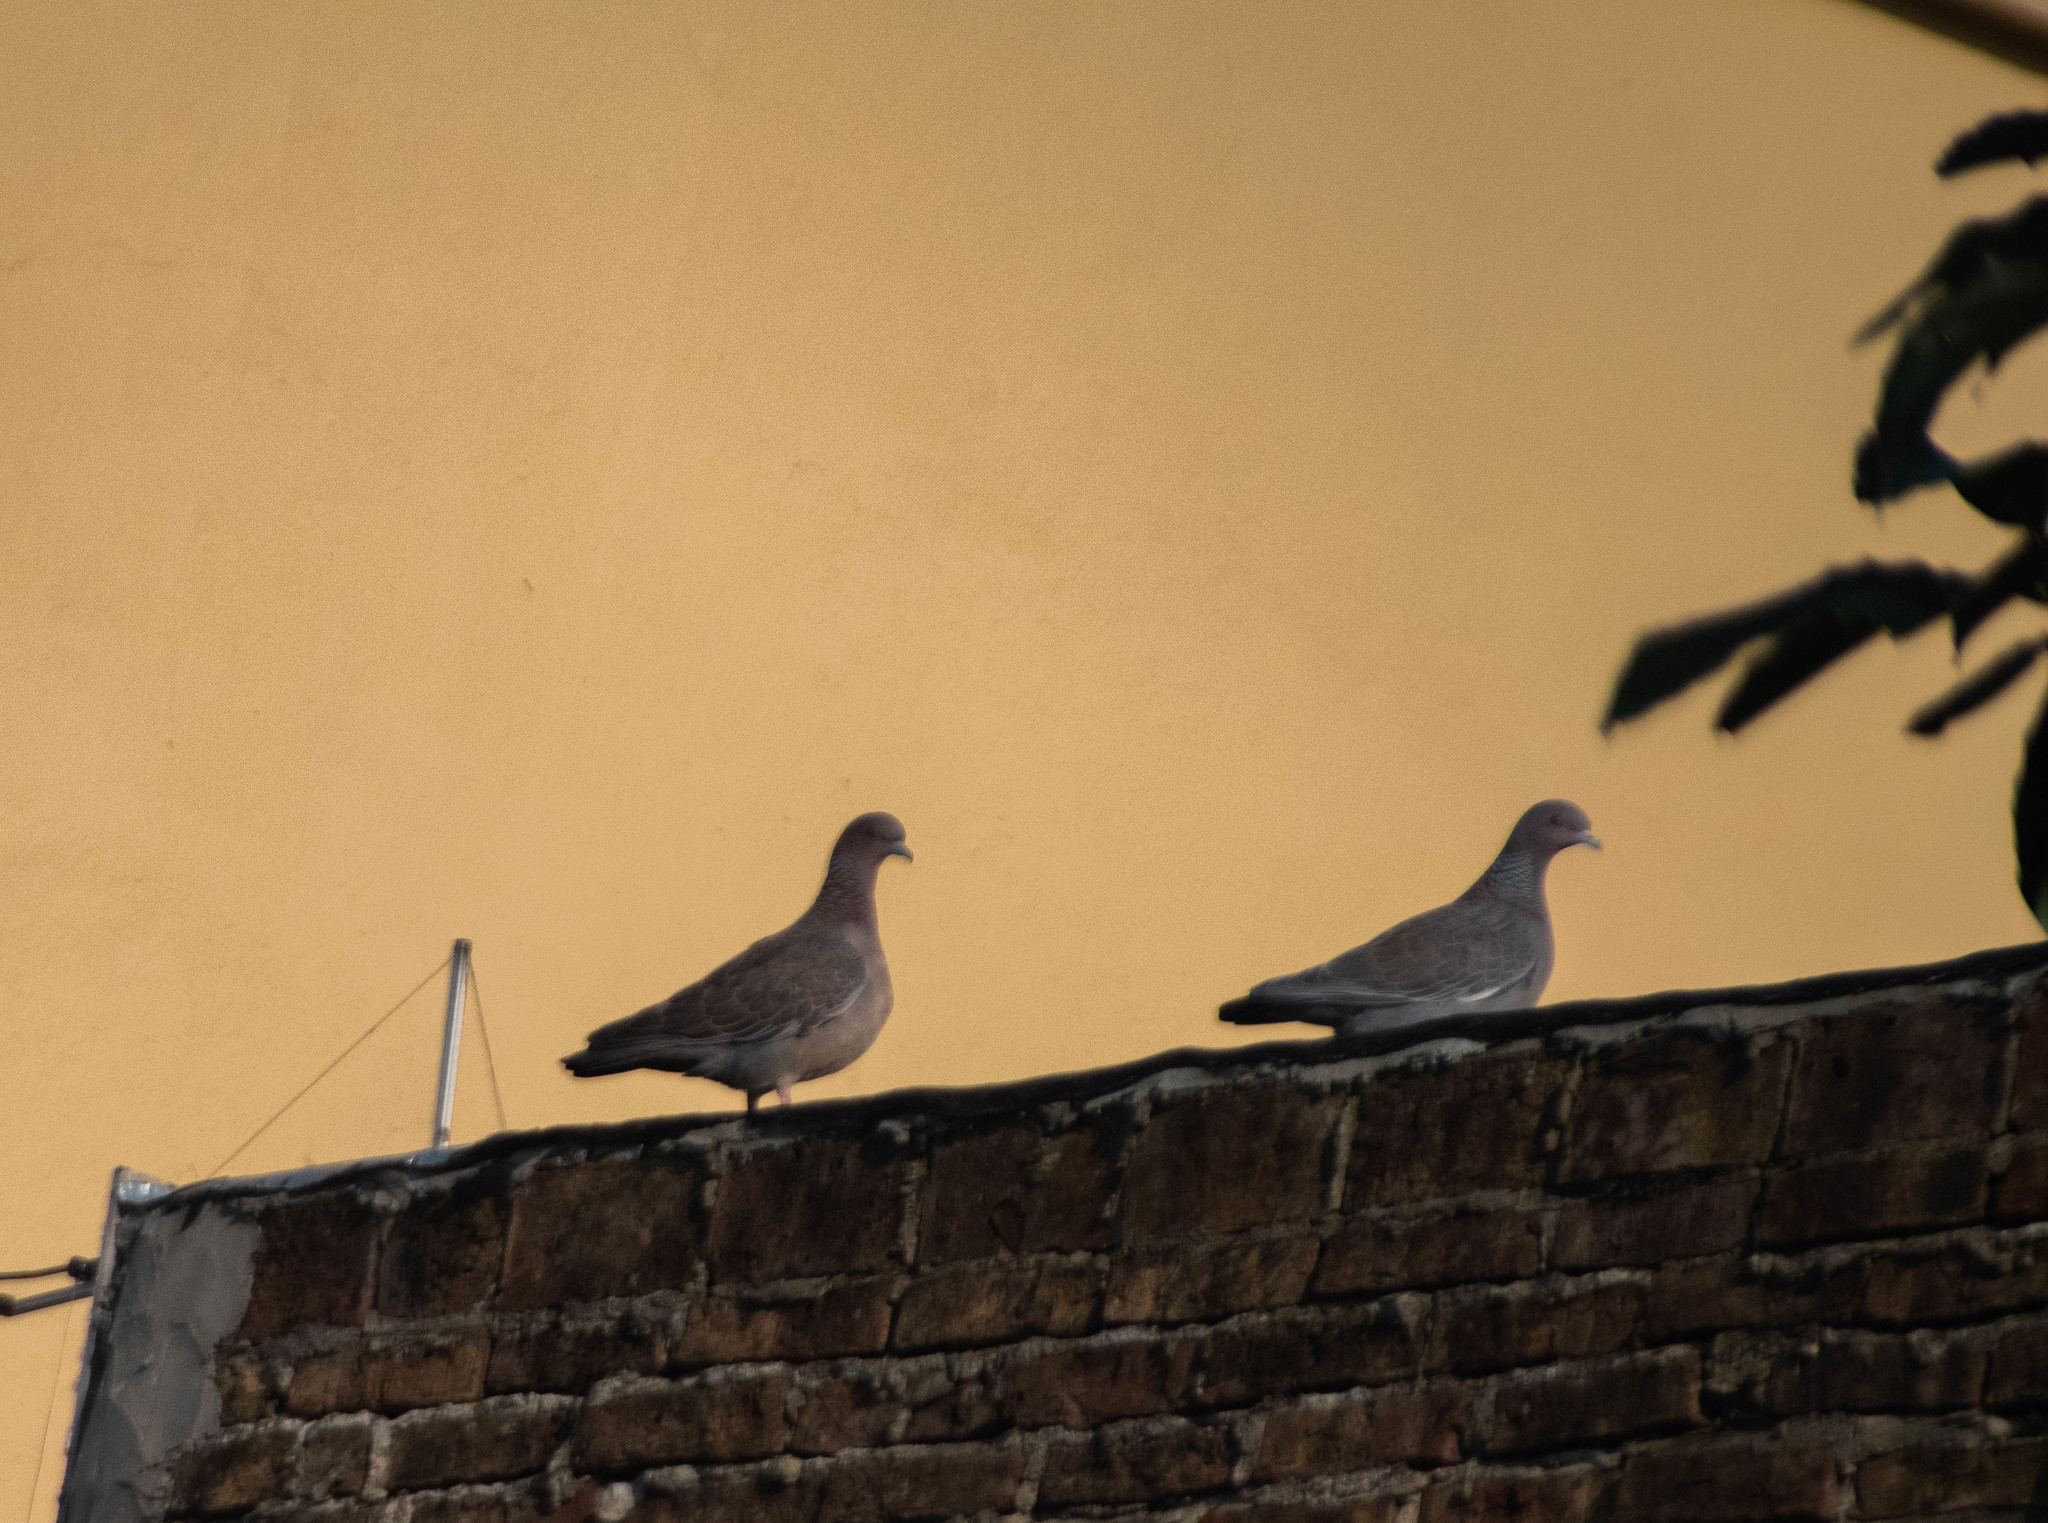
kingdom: Animalia
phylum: Chordata
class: Aves
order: Columbiformes
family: Columbidae
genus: Patagioenas
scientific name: Patagioenas picazuro
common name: Picazuro pigeon
